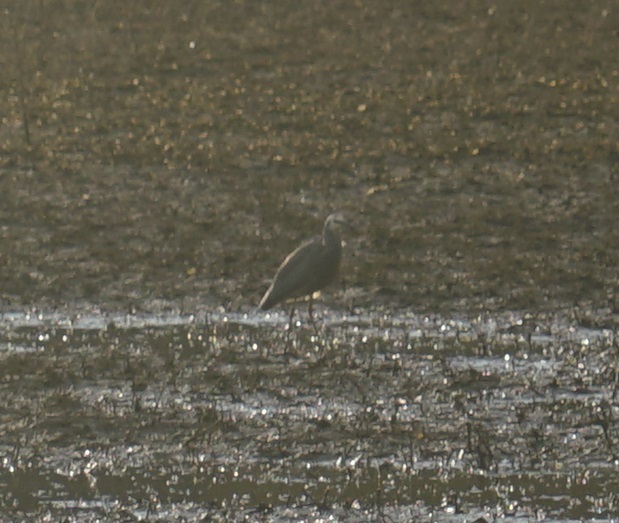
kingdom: Animalia
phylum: Chordata
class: Aves
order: Pelecaniformes
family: Ardeidae
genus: Egretta
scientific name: Egretta novaehollandiae
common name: White-faced heron
